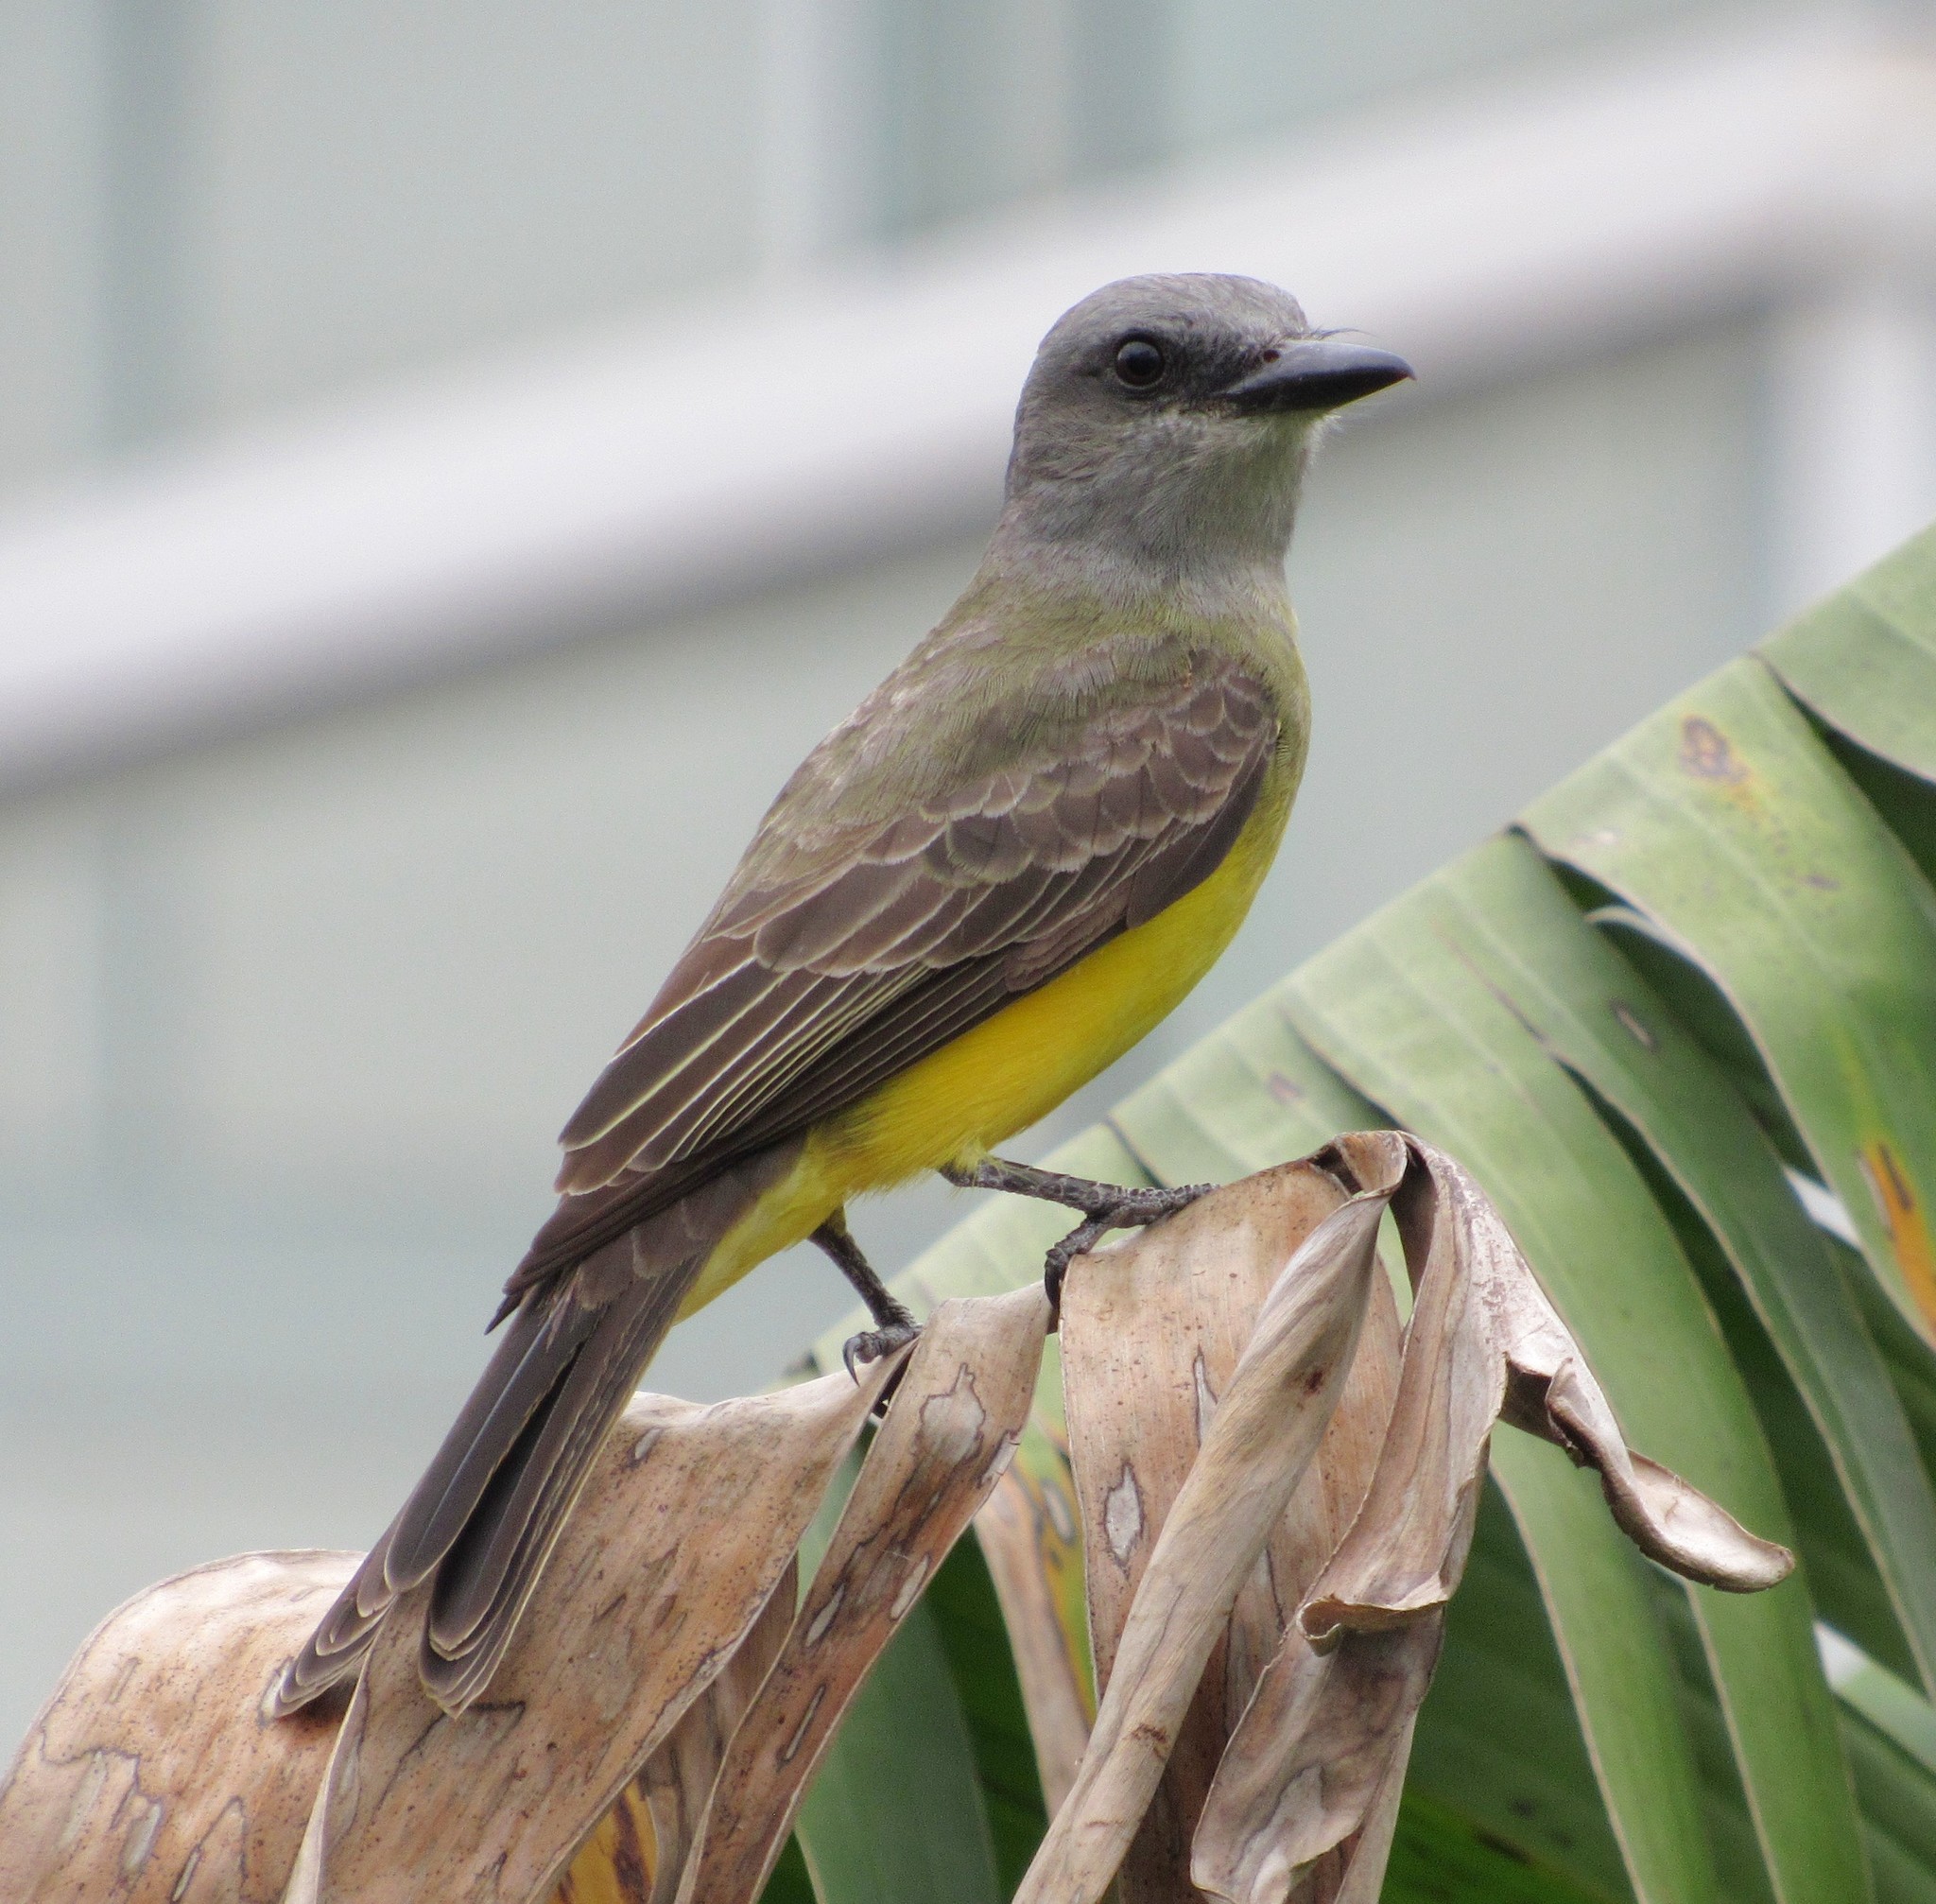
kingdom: Animalia
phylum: Chordata
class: Aves
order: Passeriformes
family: Tyrannidae
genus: Tyrannus
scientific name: Tyrannus melancholicus
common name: Tropical kingbird
